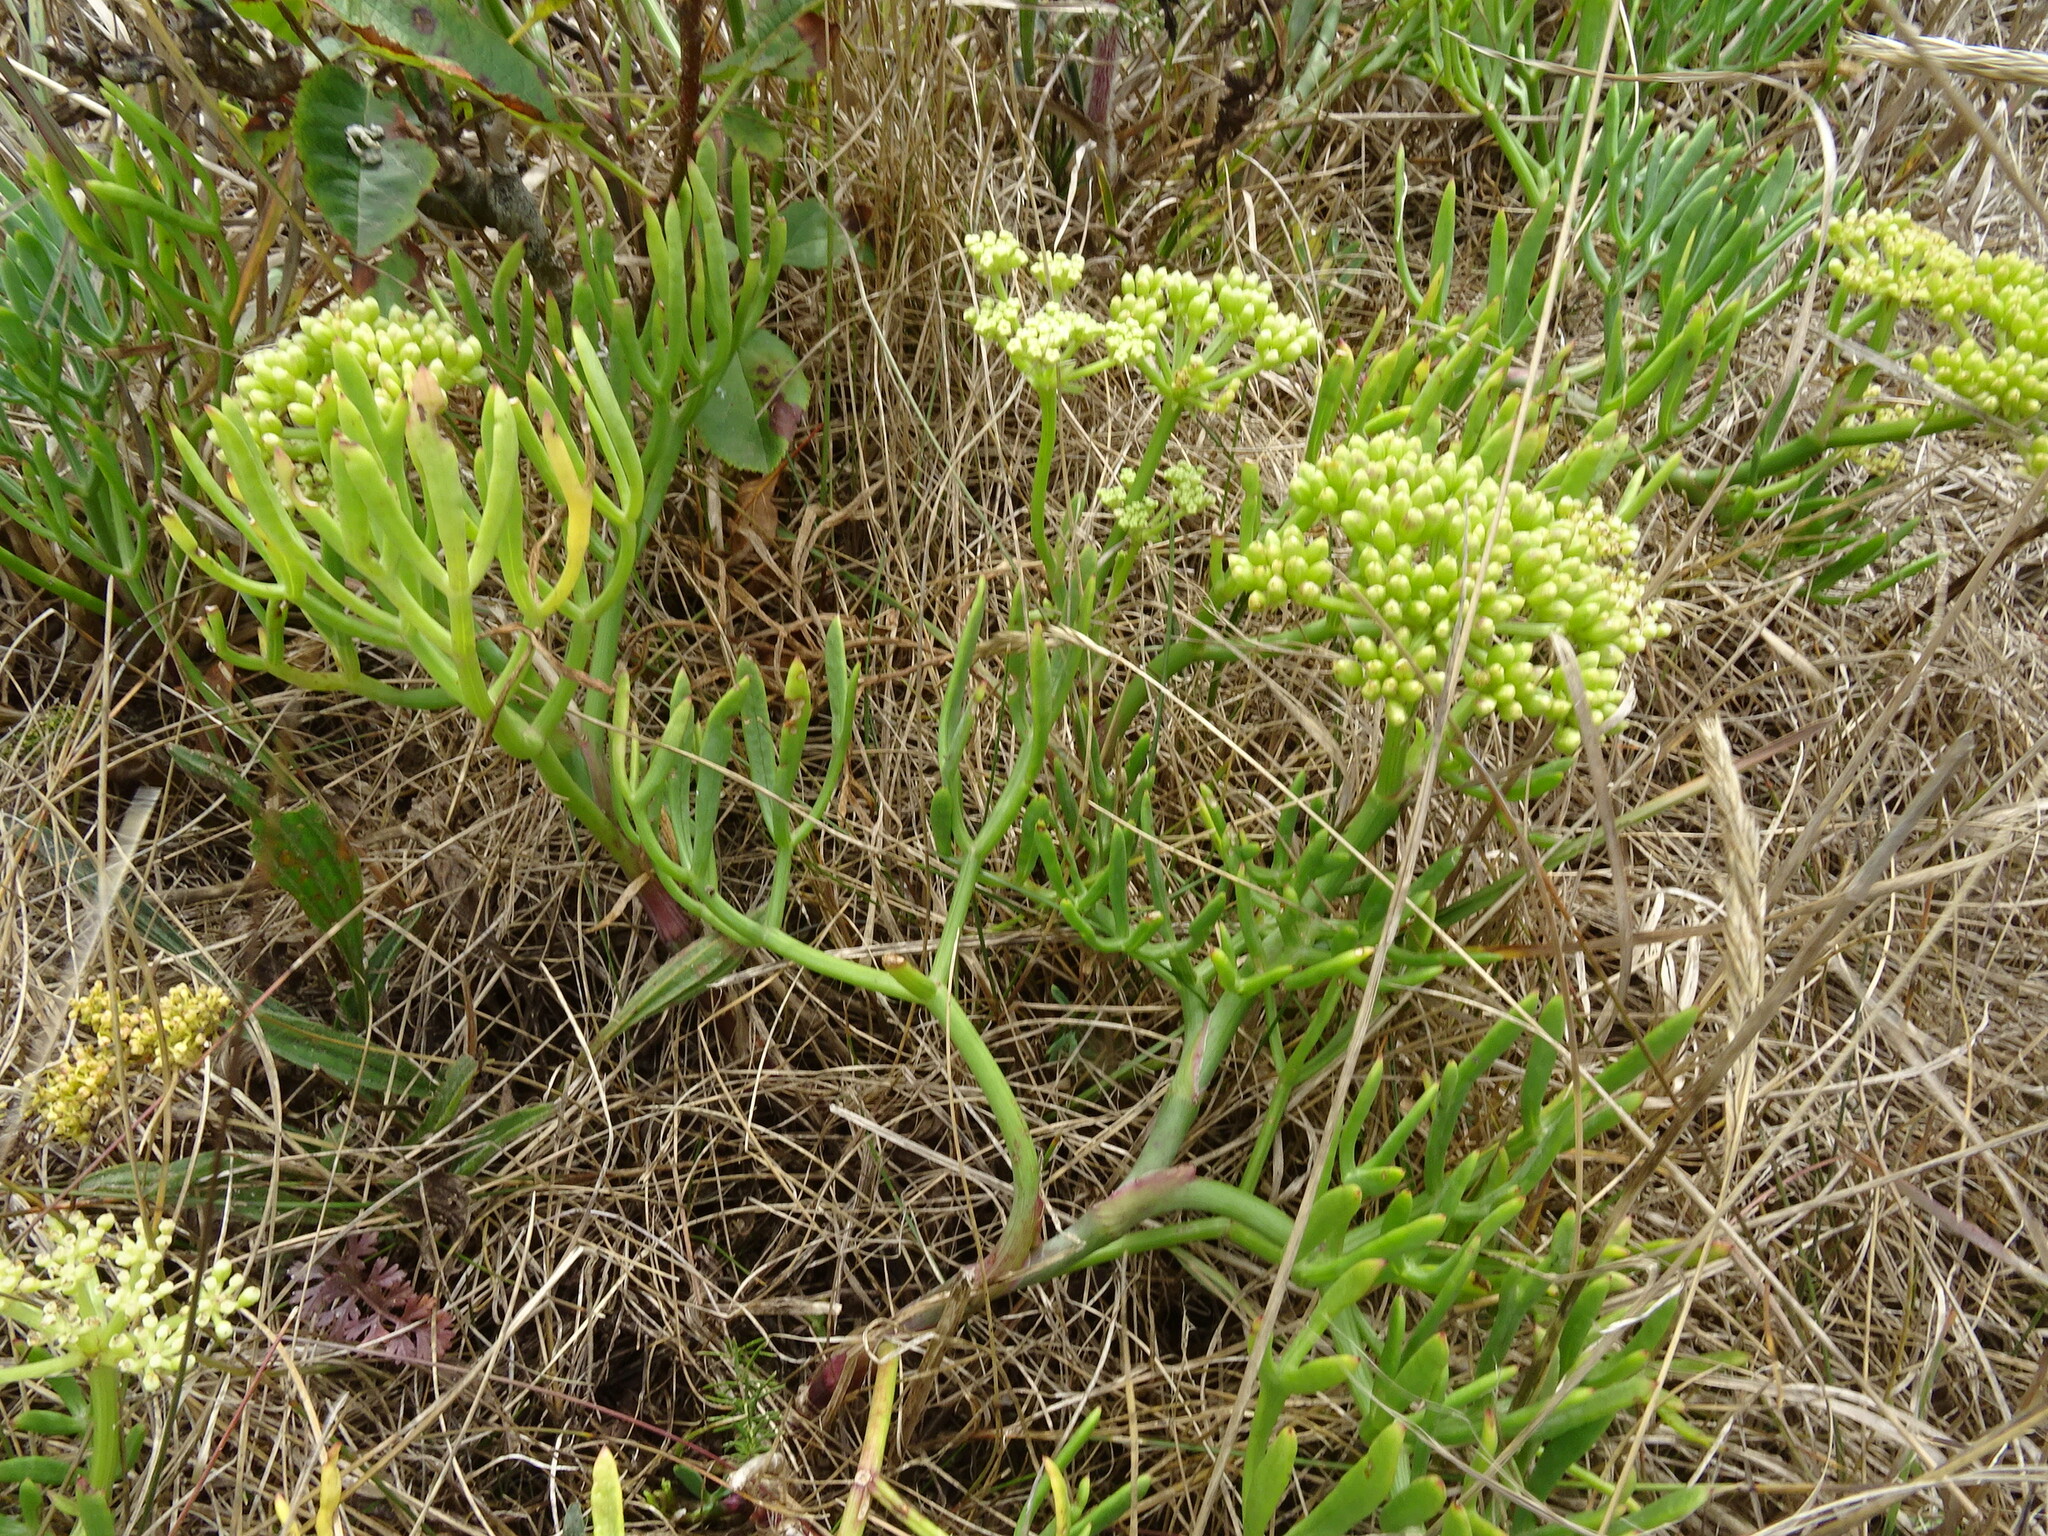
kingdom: Plantae
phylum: Tracheophyta
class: Magnoliopsida
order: Apiales
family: Apiaceae
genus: Crithmum
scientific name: Crithmum maritimum
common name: Rock samphire
